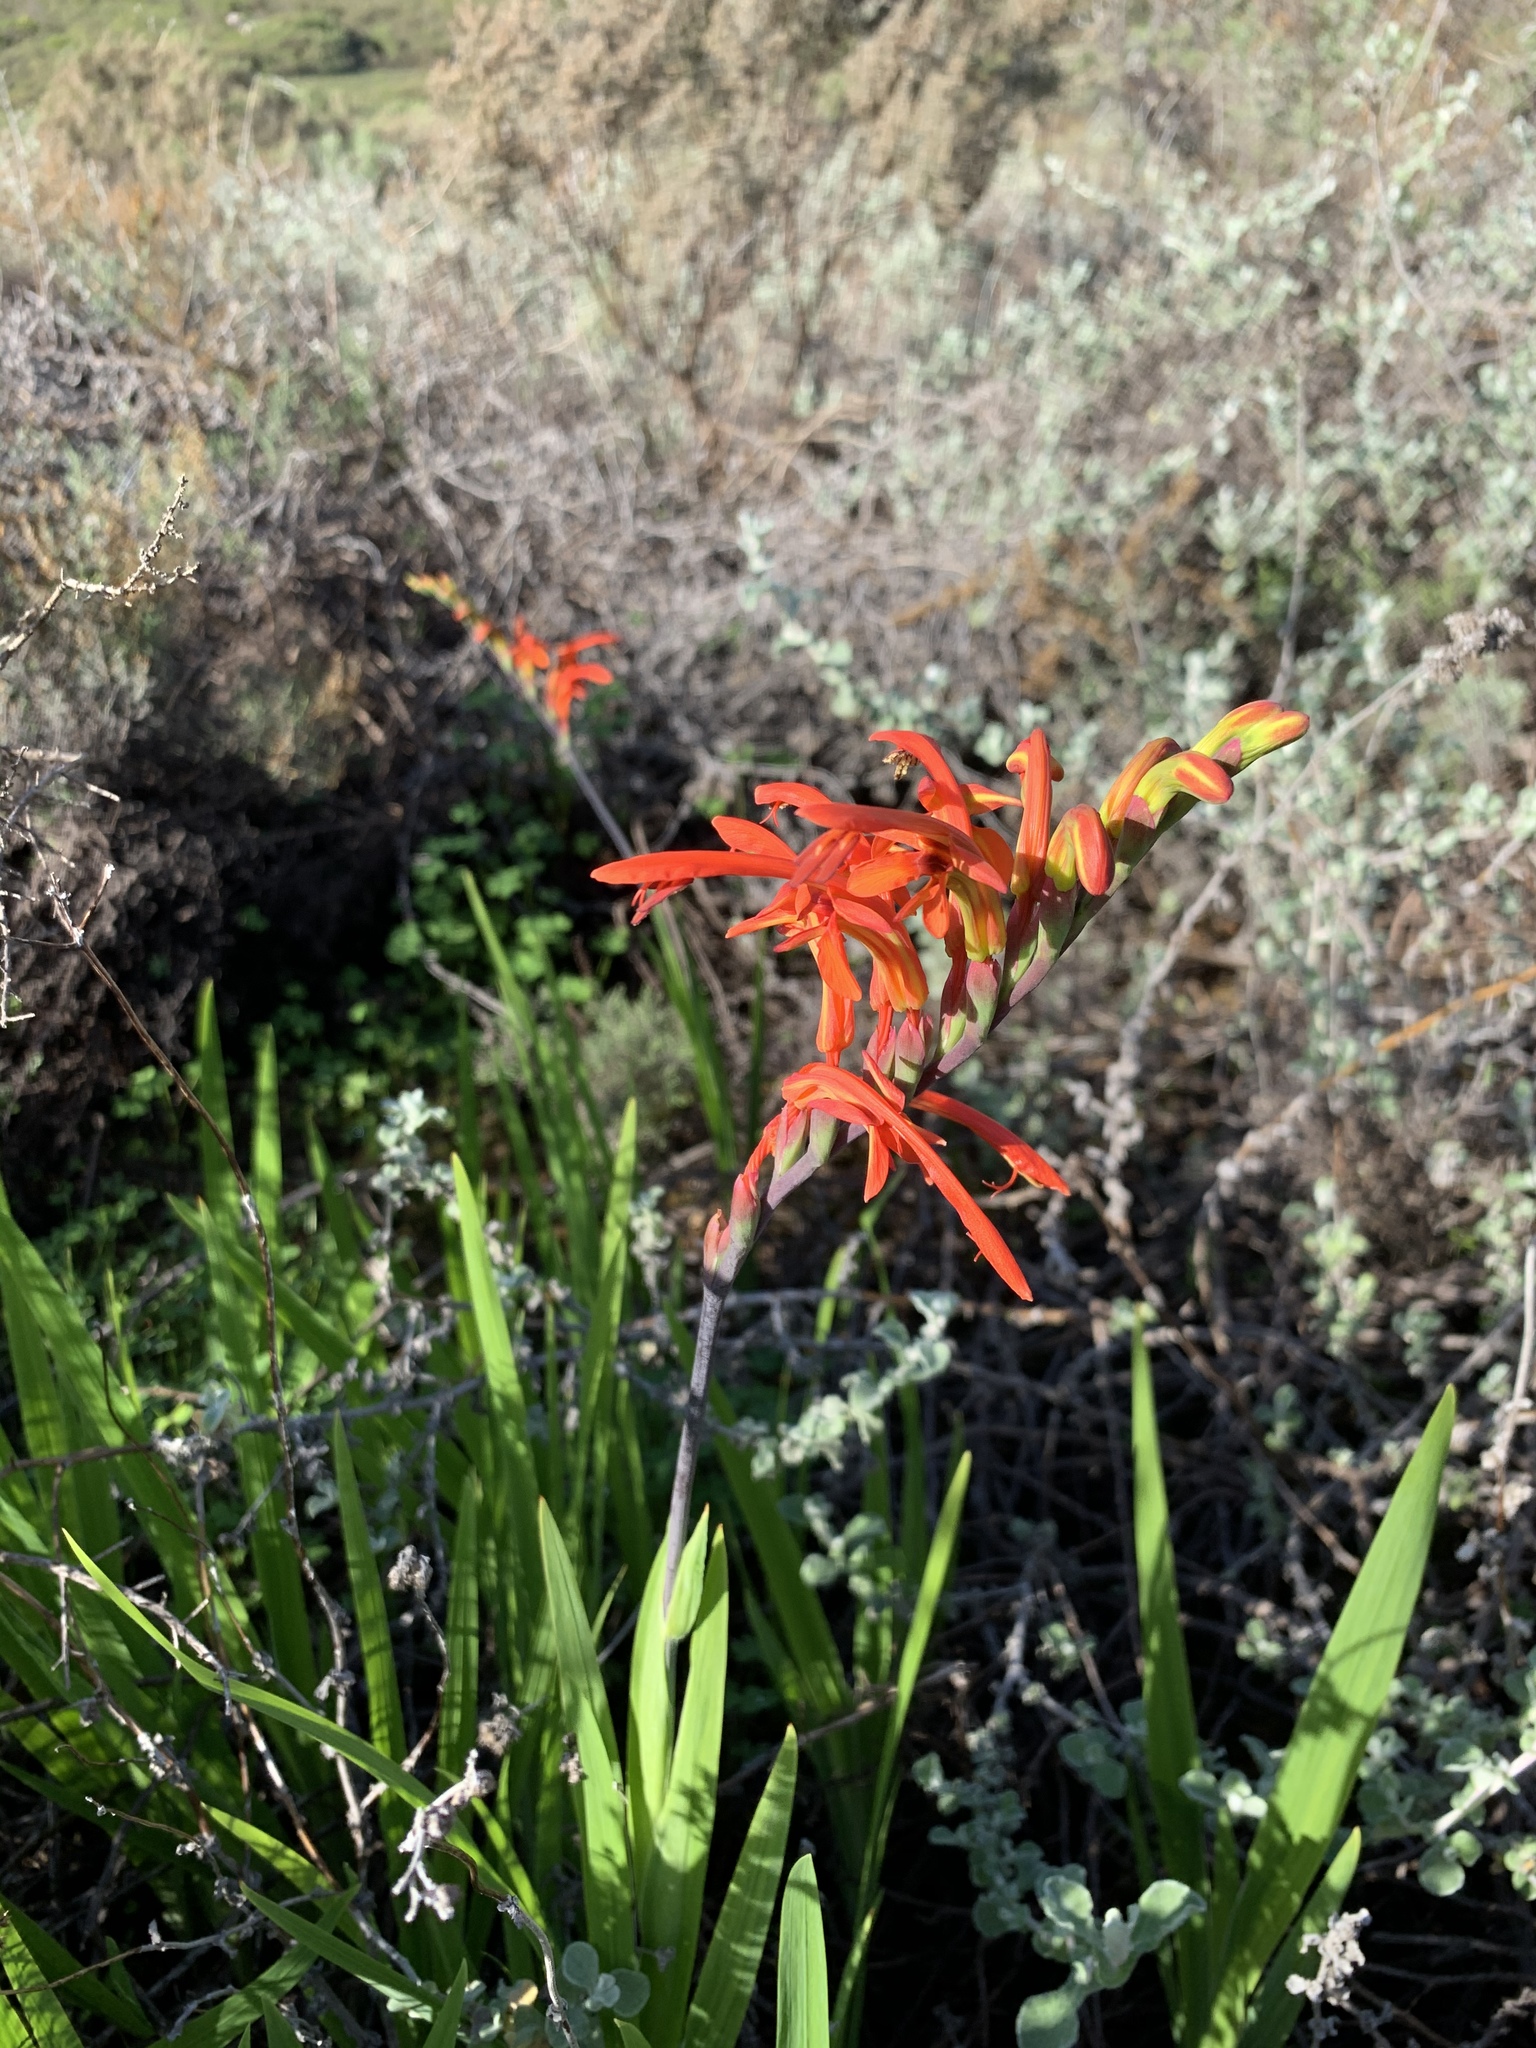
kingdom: Plantae
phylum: Tracheophyta
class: Liliopsida
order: Asparagales
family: Iridaceae
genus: Chasmanthe
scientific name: Chasmanthe aethiopica
